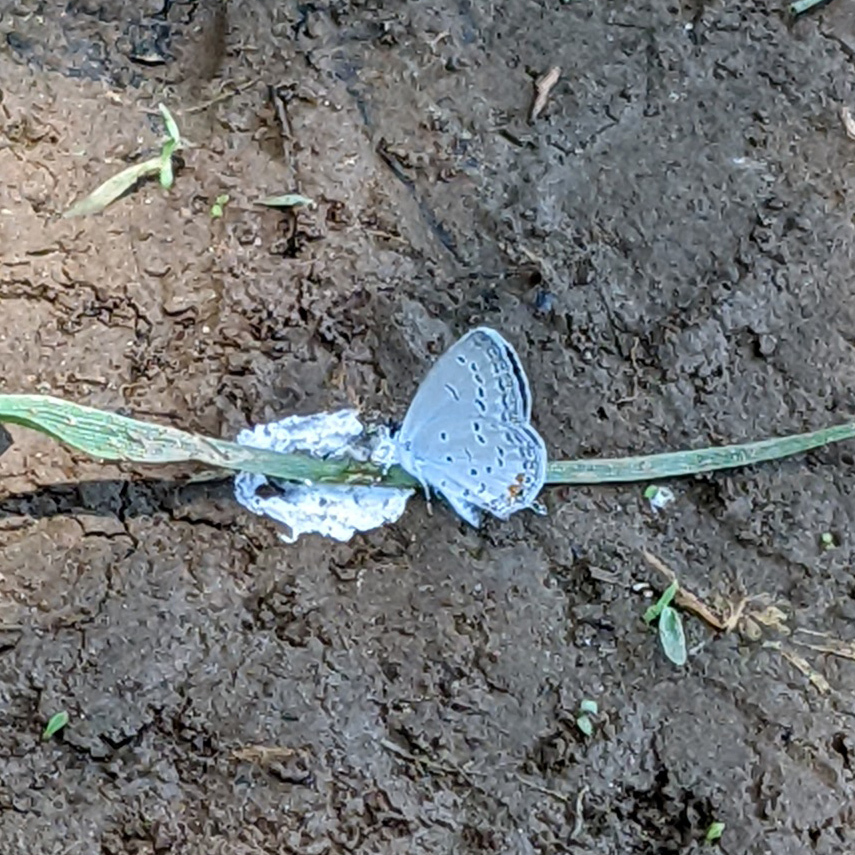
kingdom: Animalia
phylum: Arthropoda
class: Insecta
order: Lepidoptera
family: Lycaenidae
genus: Elkalyce
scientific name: Elkalyce comyntas
